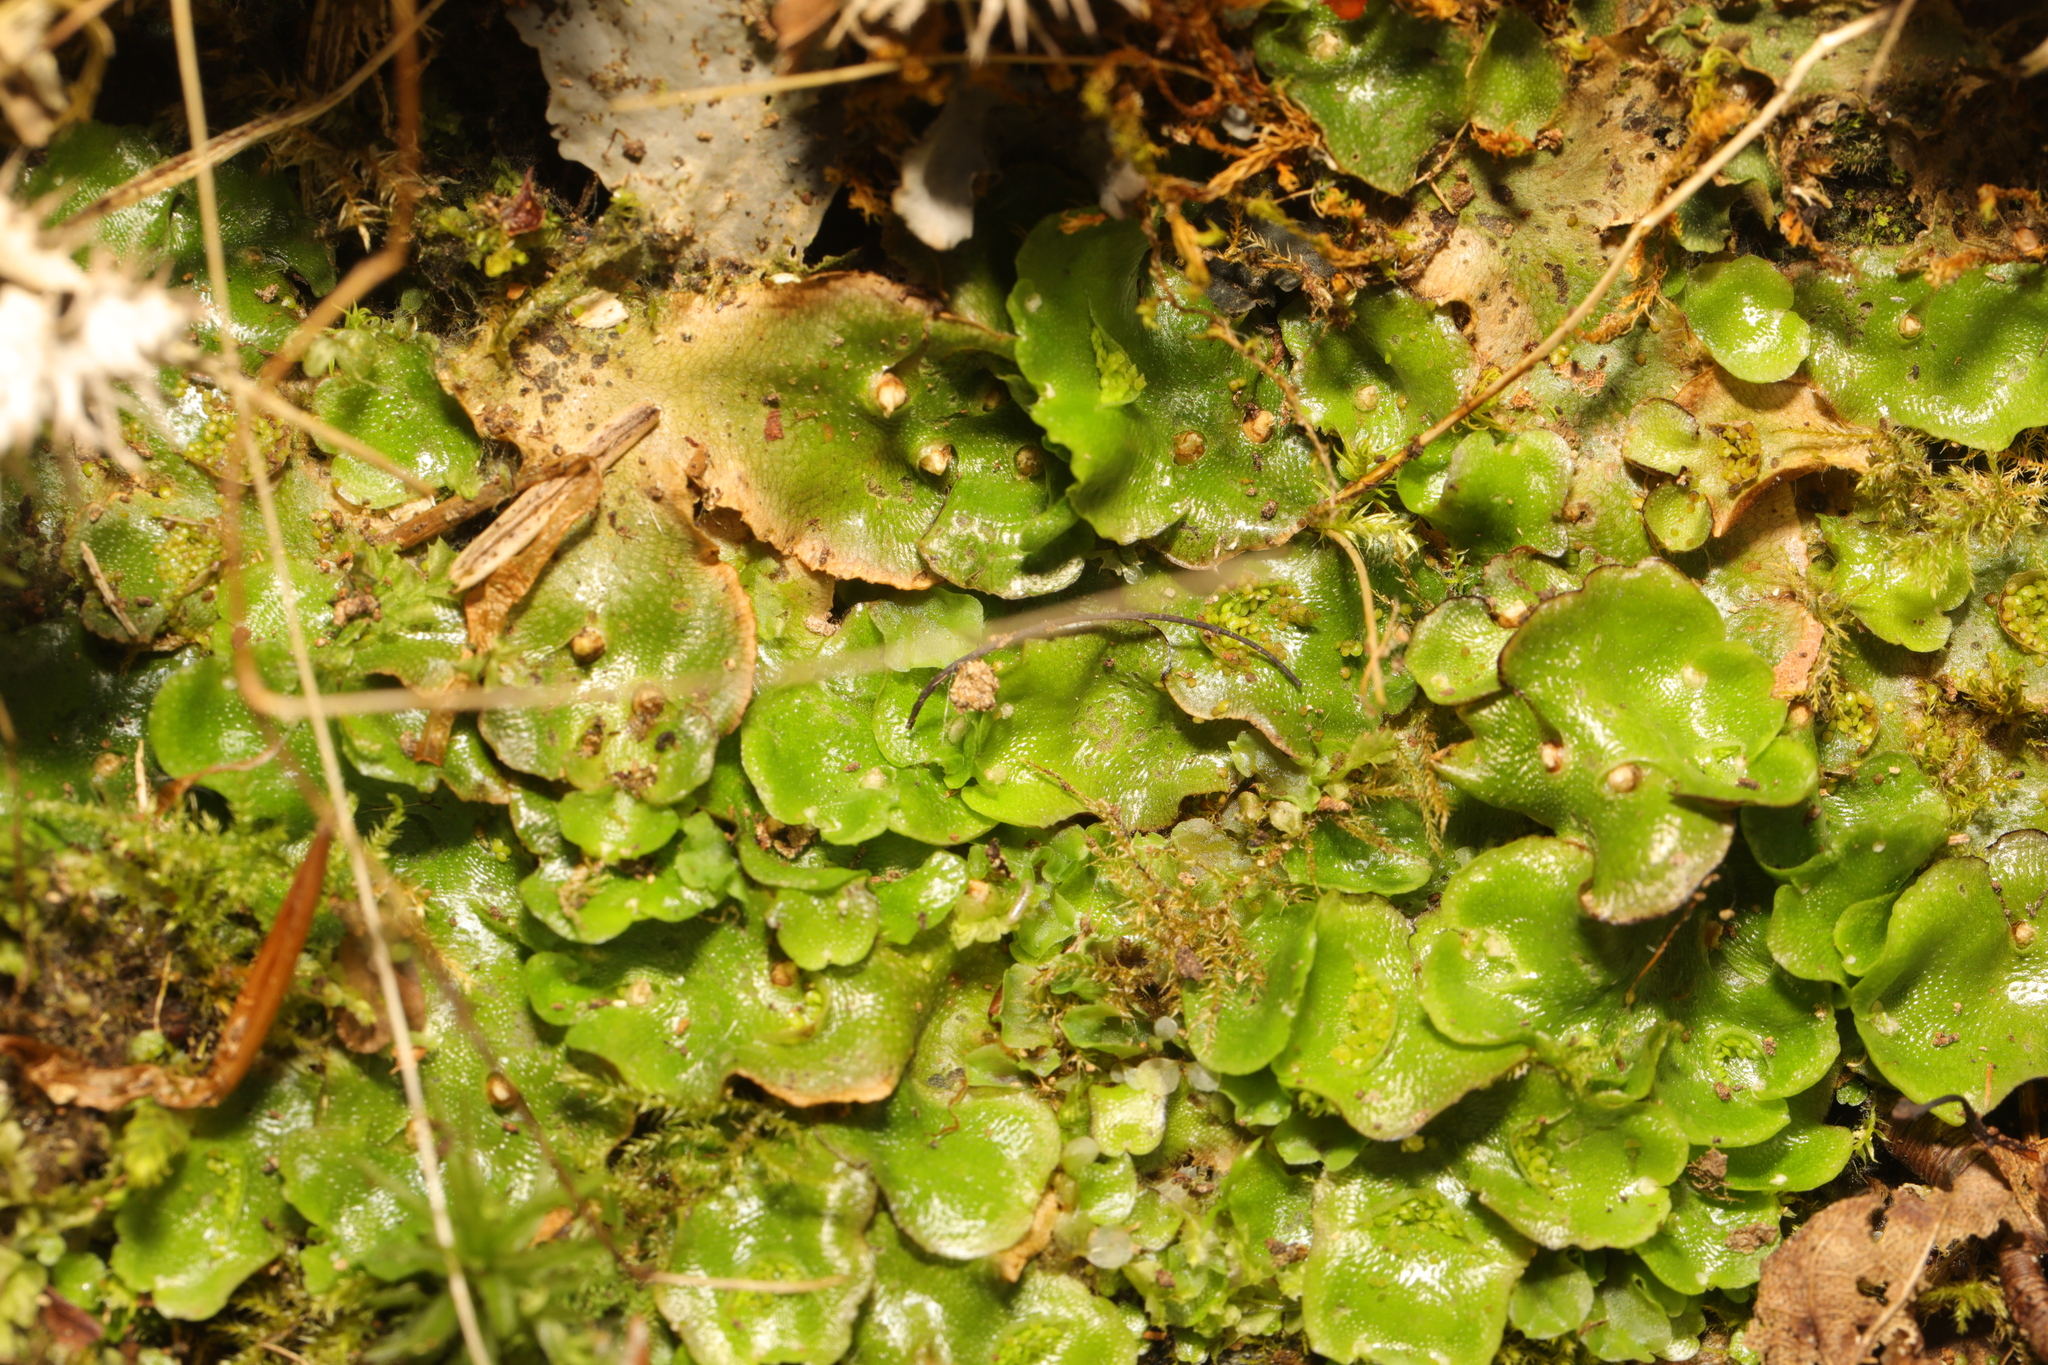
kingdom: Plantae
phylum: Marchantiophyta
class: Marchantiopsida
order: Lunulariales
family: Lunulariaceae
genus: Lunularia
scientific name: Lunularia cruciata
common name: Crescent-cup liverwort
